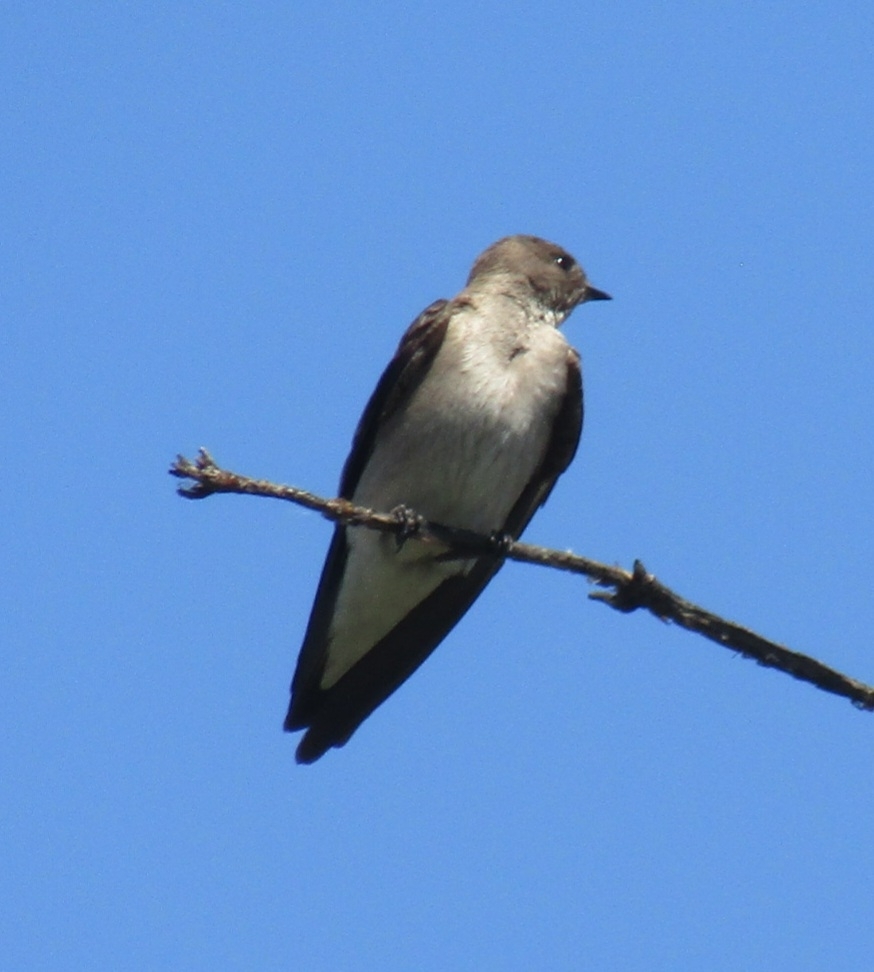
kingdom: Animalia
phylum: Chordata
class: Aves
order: Passeriformes
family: Hirundinidae
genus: Stelgidopteryx
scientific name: Stelgidopteryx serripennis
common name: Northern rough-winged swallow
